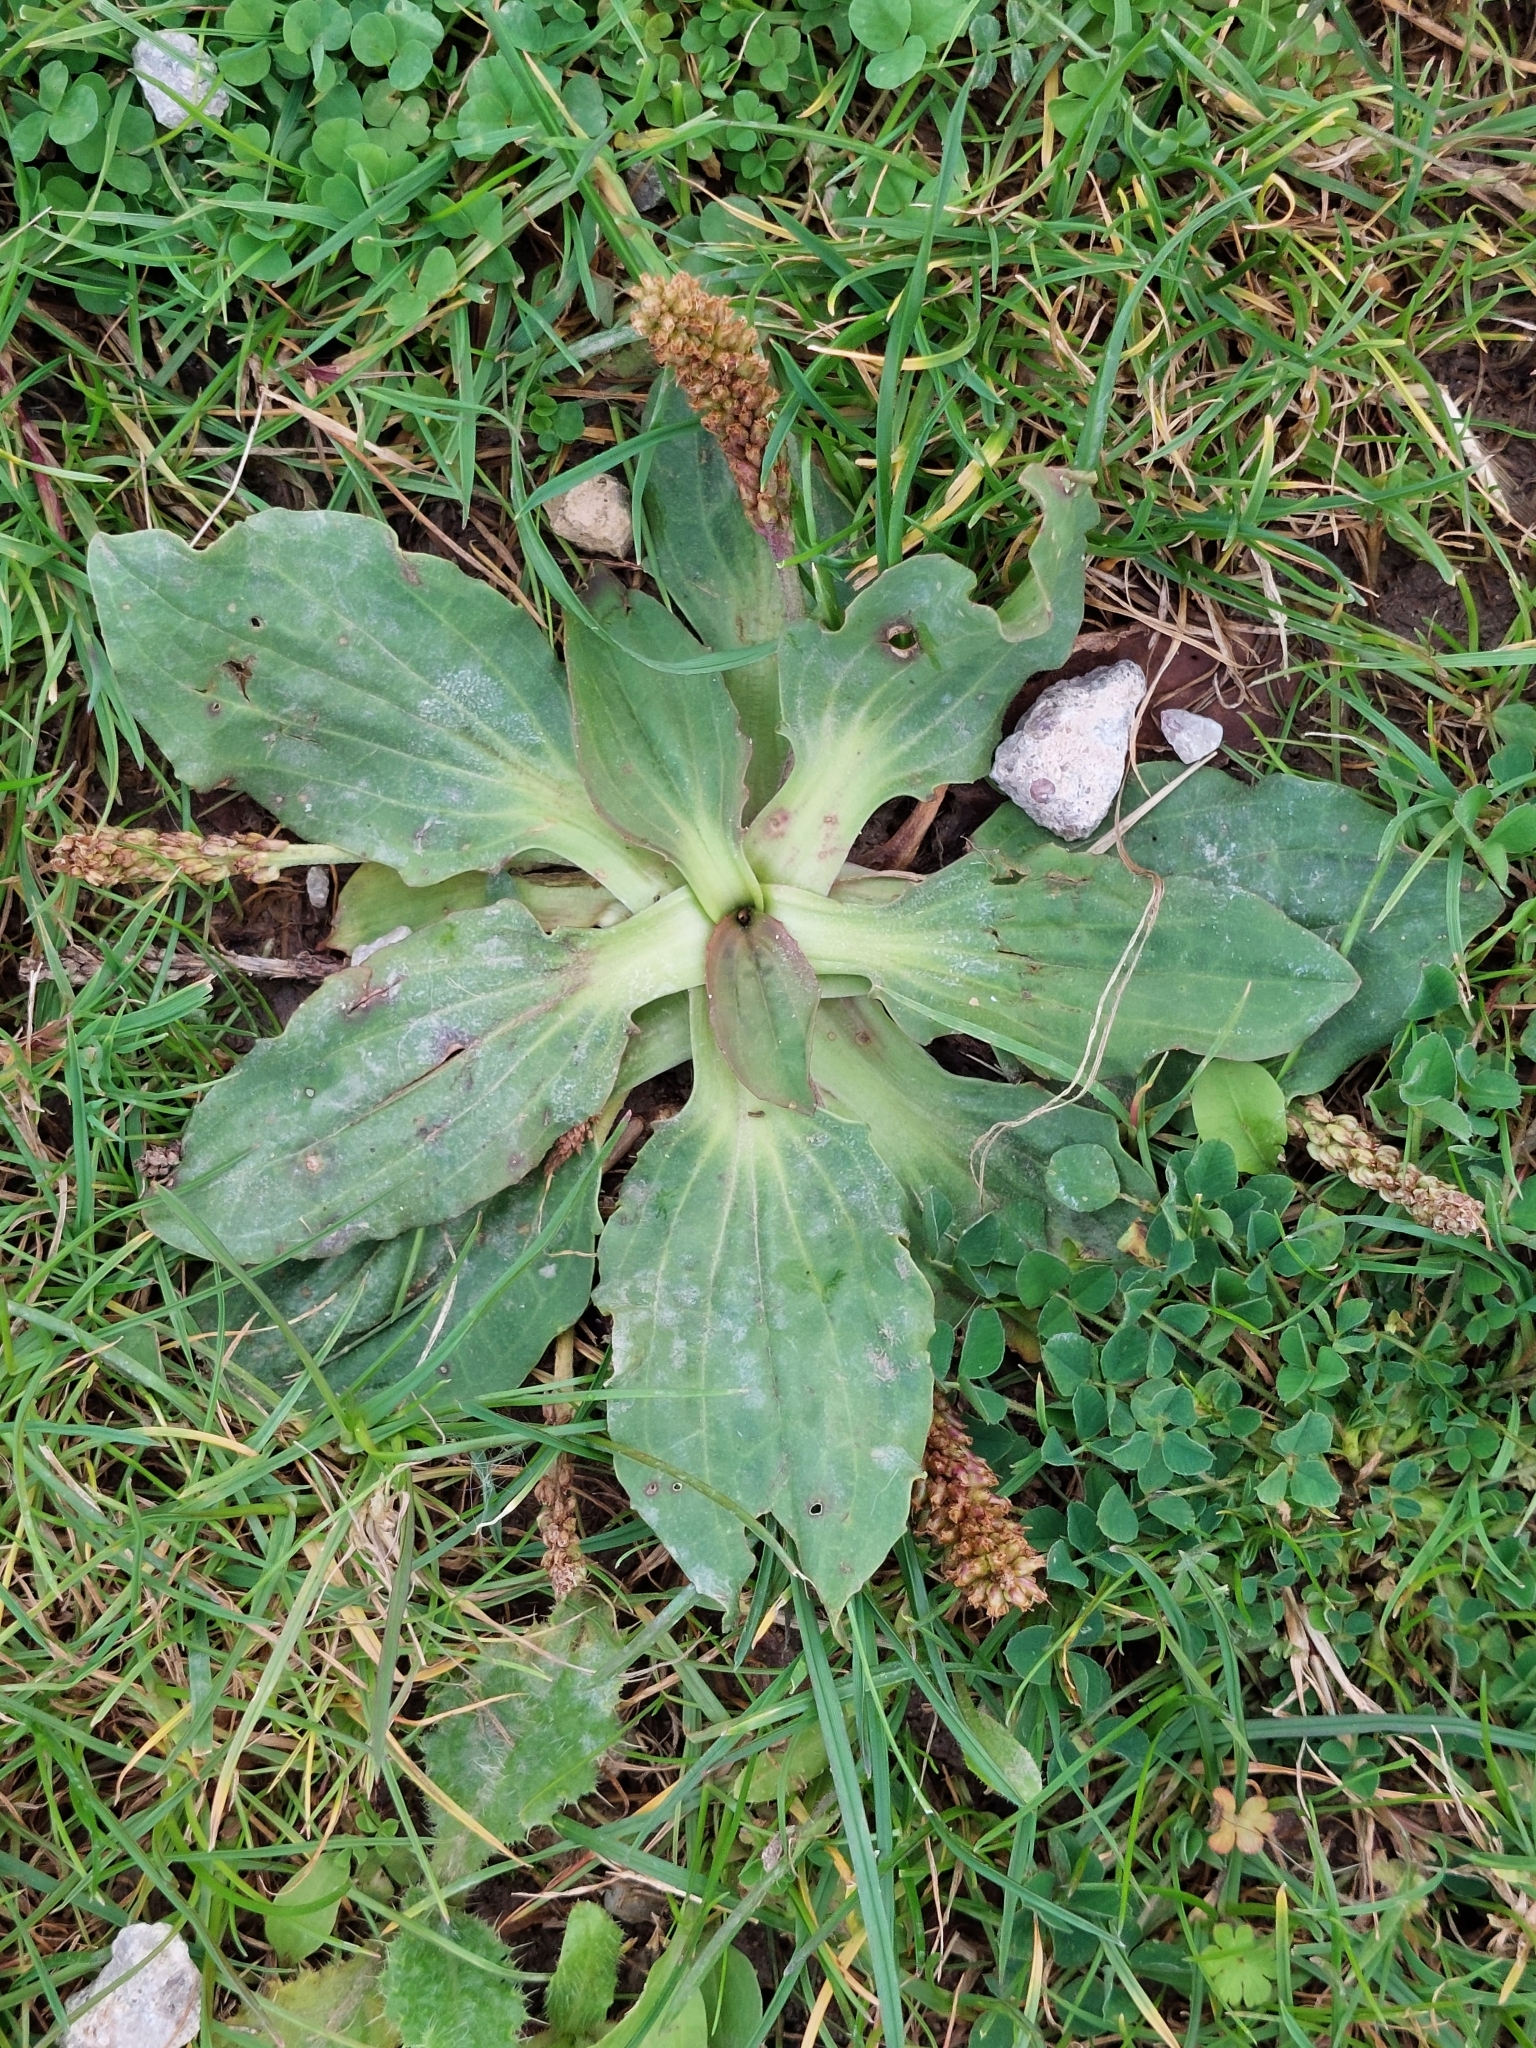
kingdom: Plantae
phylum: Tracheophyta
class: Magnoliopsida
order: Lamiales
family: Plantaginaceae
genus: Plantago
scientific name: Plantago major
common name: Common plantain
